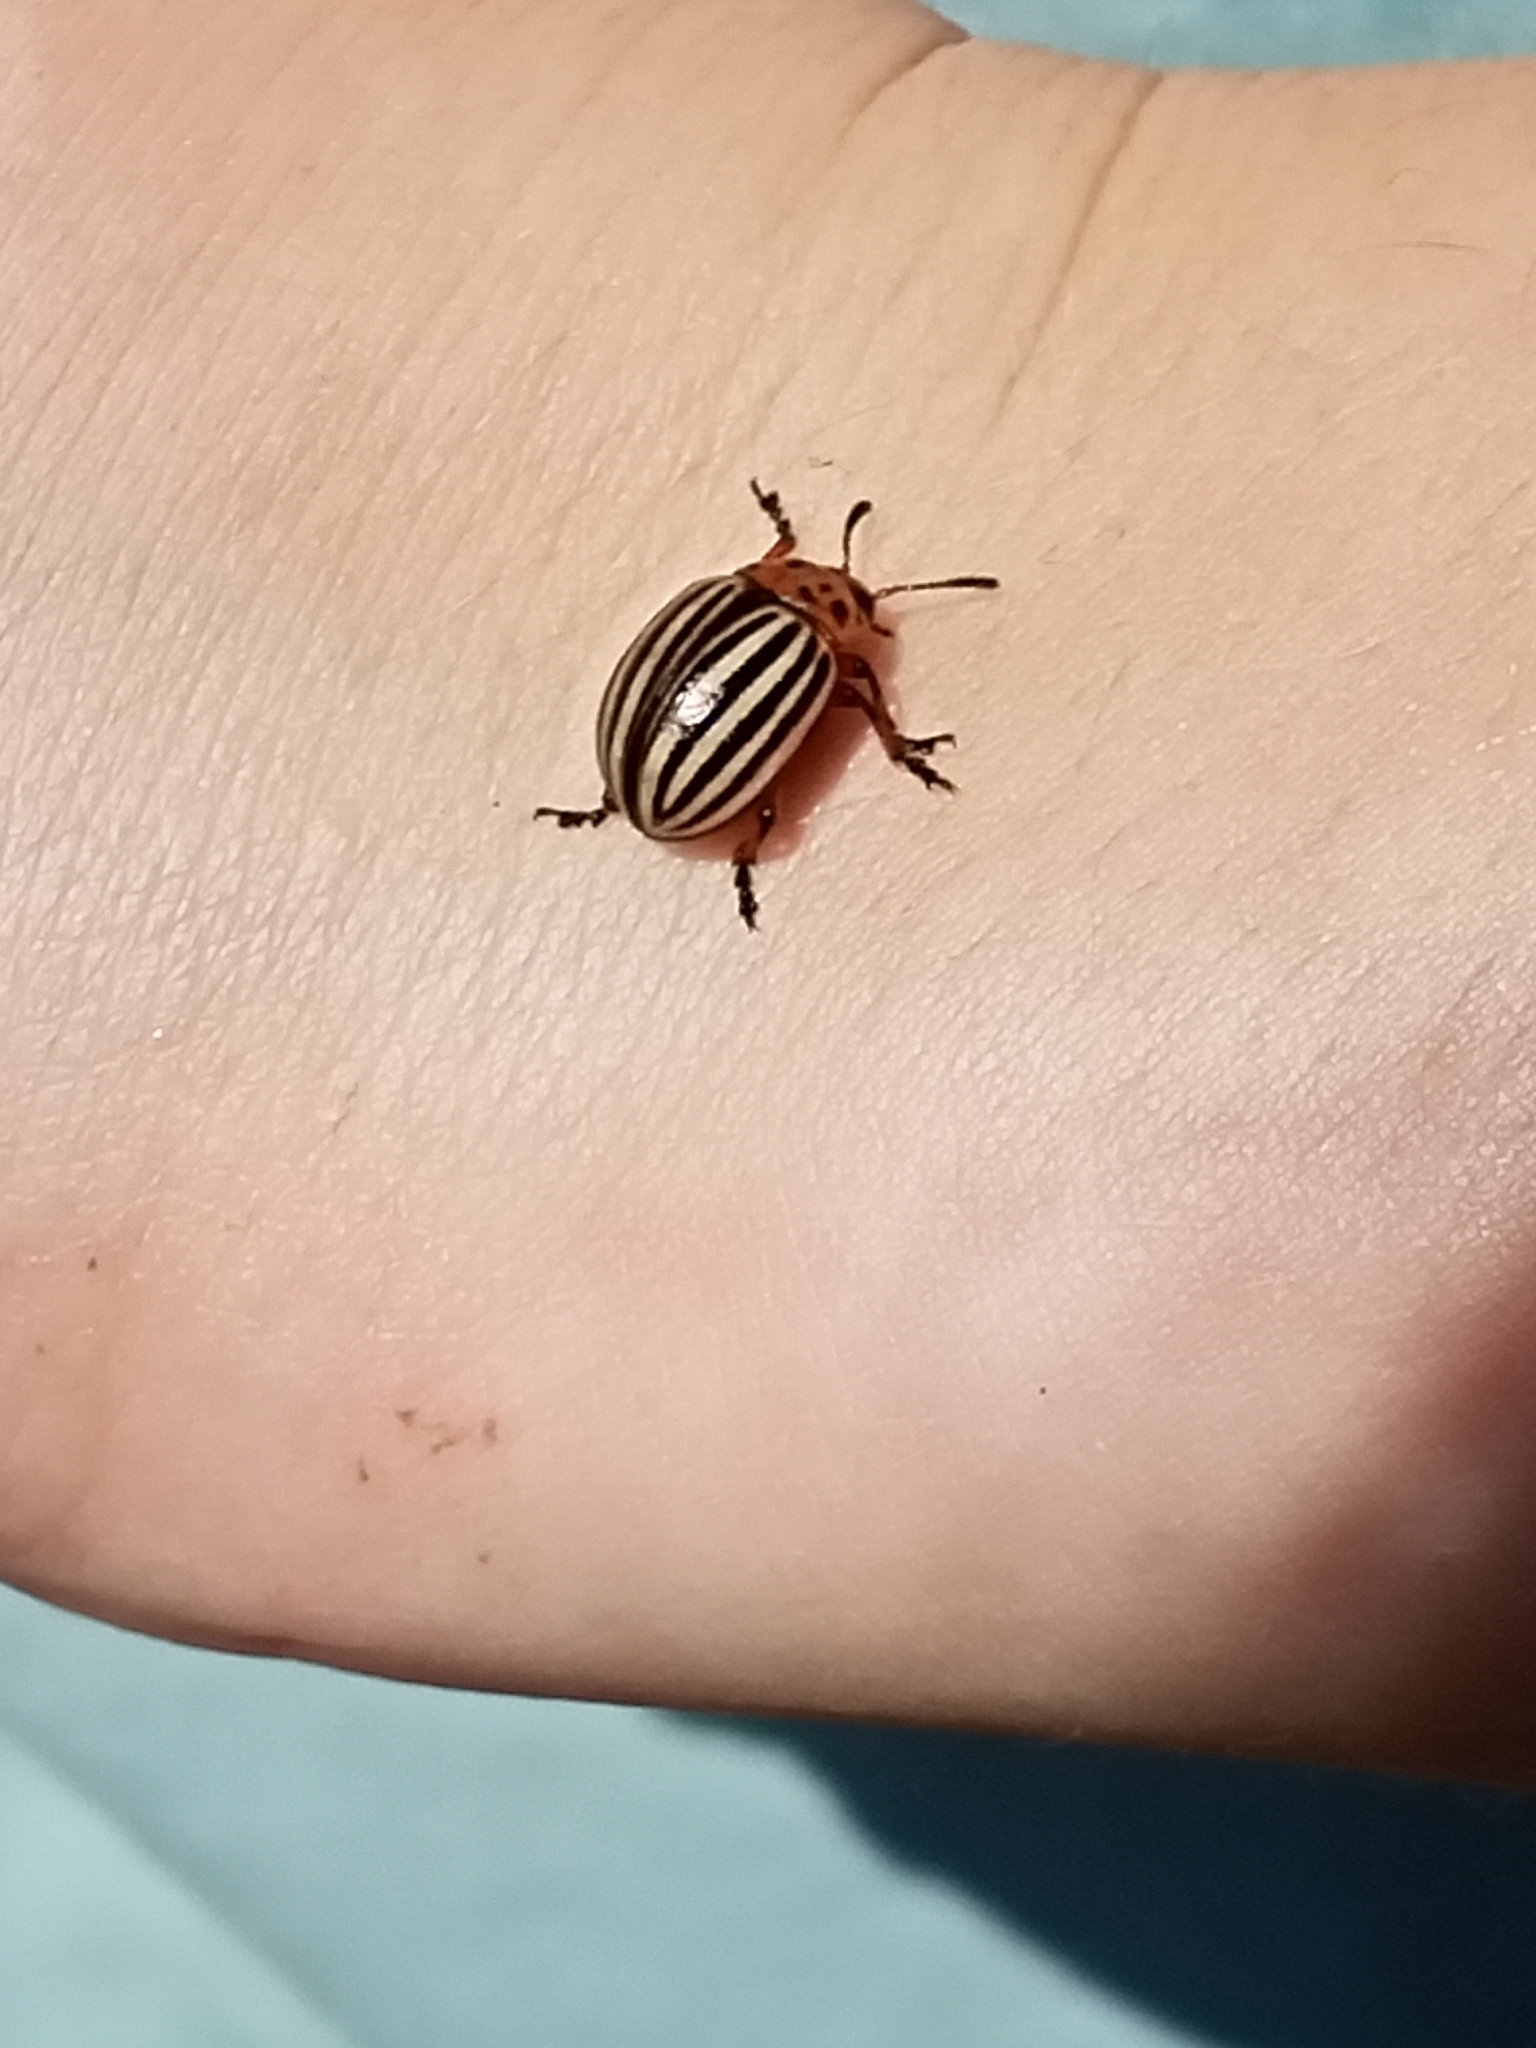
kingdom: Animalia
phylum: Arthropoda
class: Insecta
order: Coleoptera
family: Chrysomelidae
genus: Leptinotarsa
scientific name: Leptinotarsa decemlineata
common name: Colorado potato beetle
